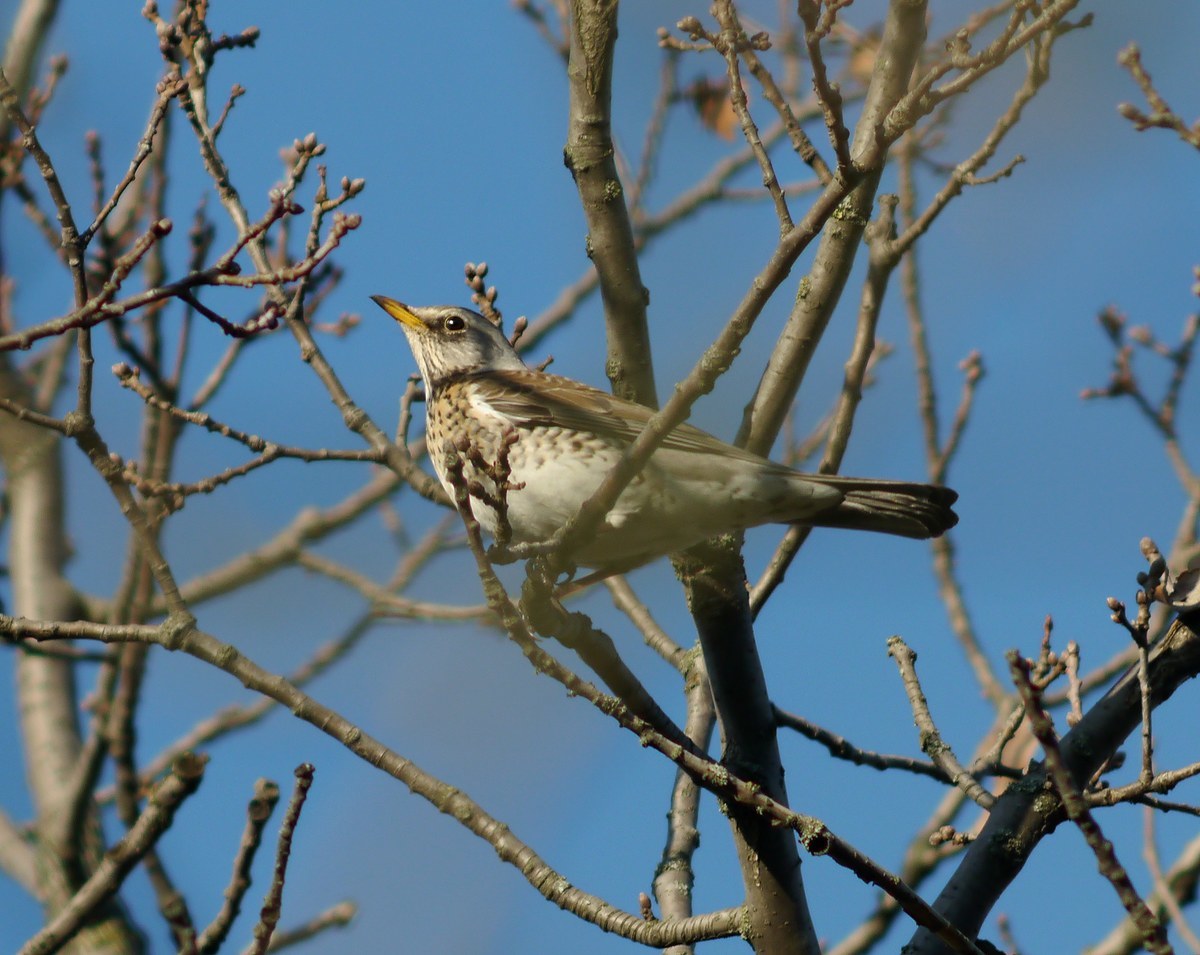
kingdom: Animalia
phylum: Chordata
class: Aves
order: Passeriformes
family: Turdidae
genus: Turdus
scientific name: Turdus pilaris
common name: Fieldfare
